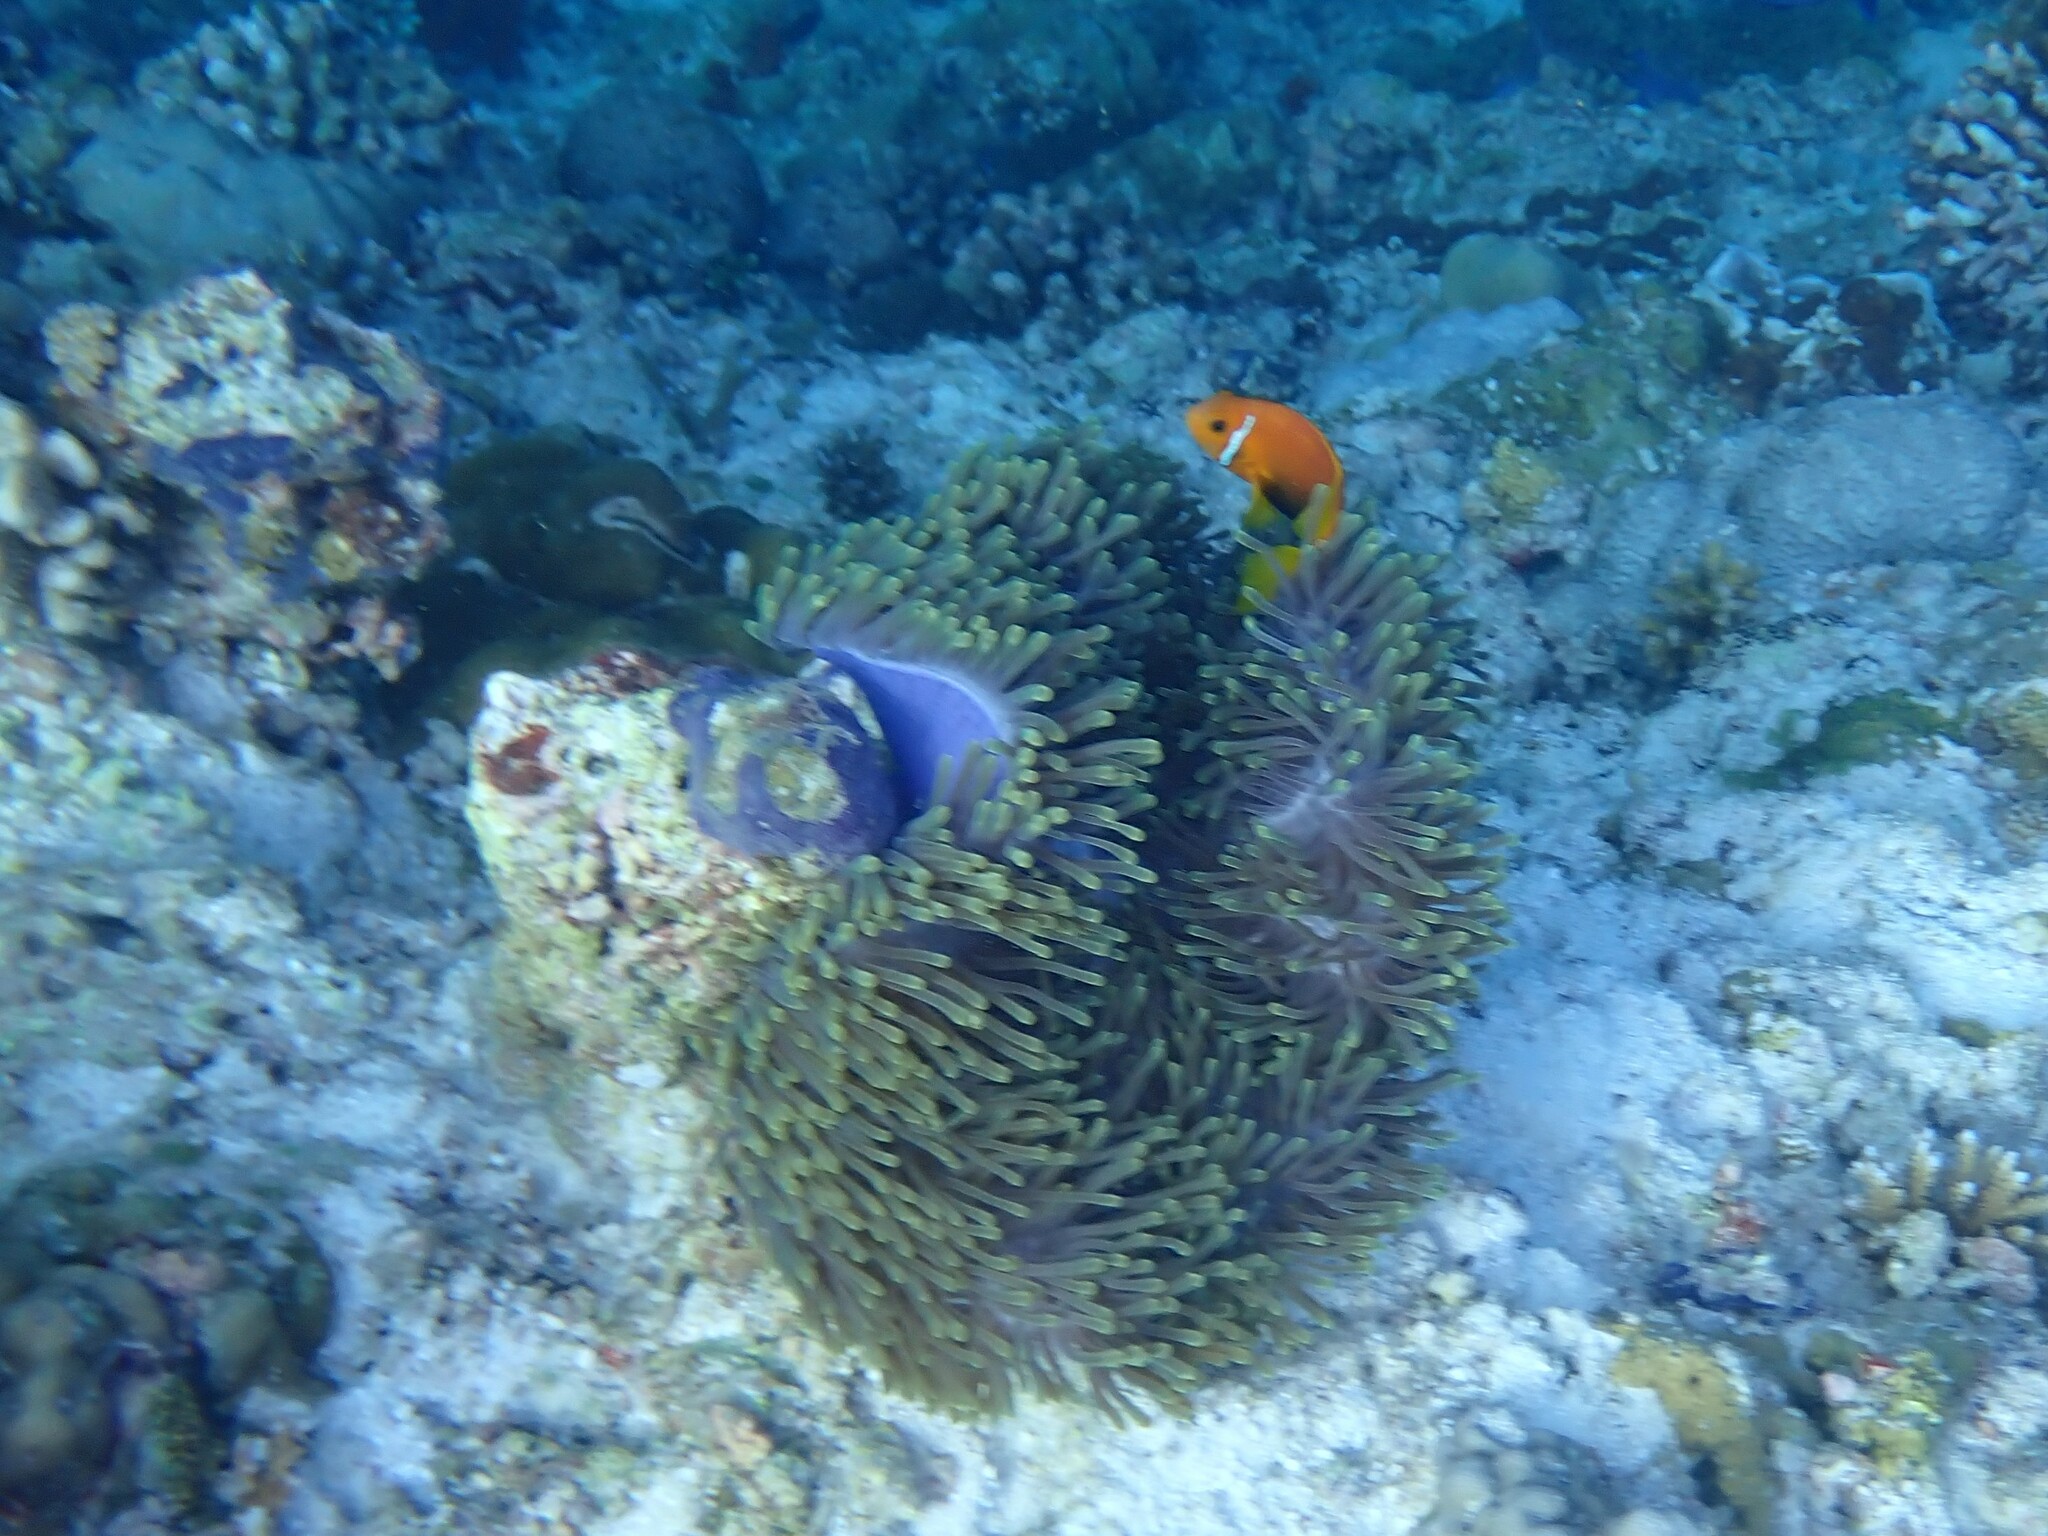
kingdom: Animalia
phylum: Chordata
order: Perciformes
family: Pomacentridae
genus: Amphiprion
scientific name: Amphiprion nigripes
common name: Maldive anemonefish
